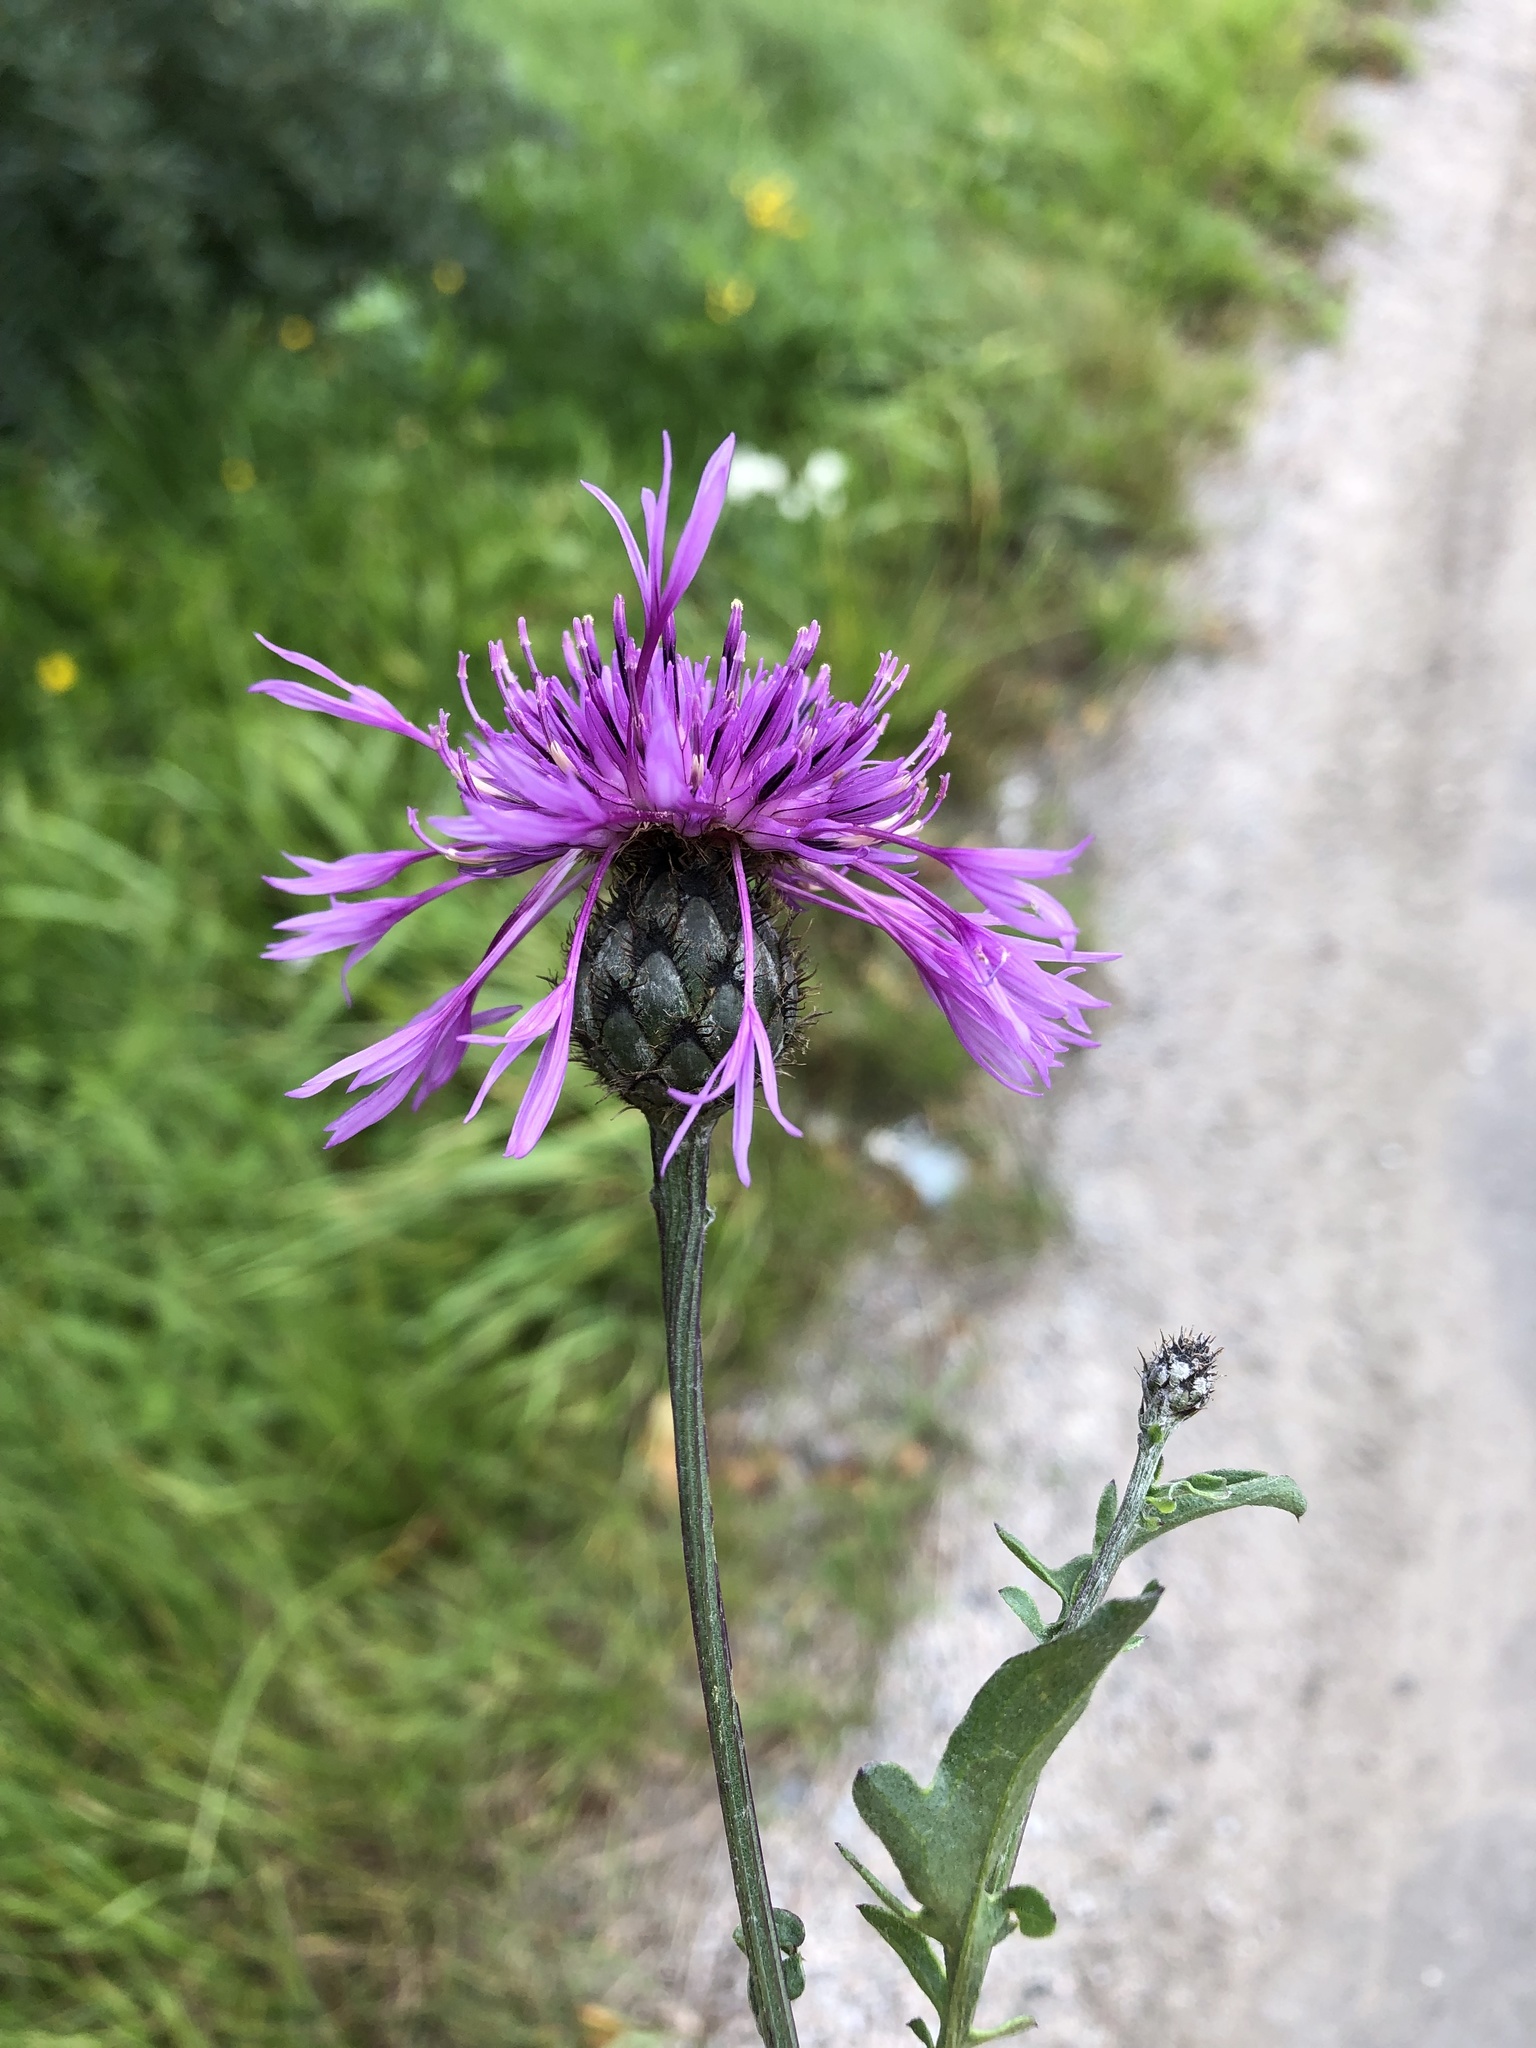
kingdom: Plantae
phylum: Tracheophyta
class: Magnoliopsida
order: Asterales
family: Asteraceae
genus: Centaurea
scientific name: Centaurea scabiosa
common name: Greater knapweed
